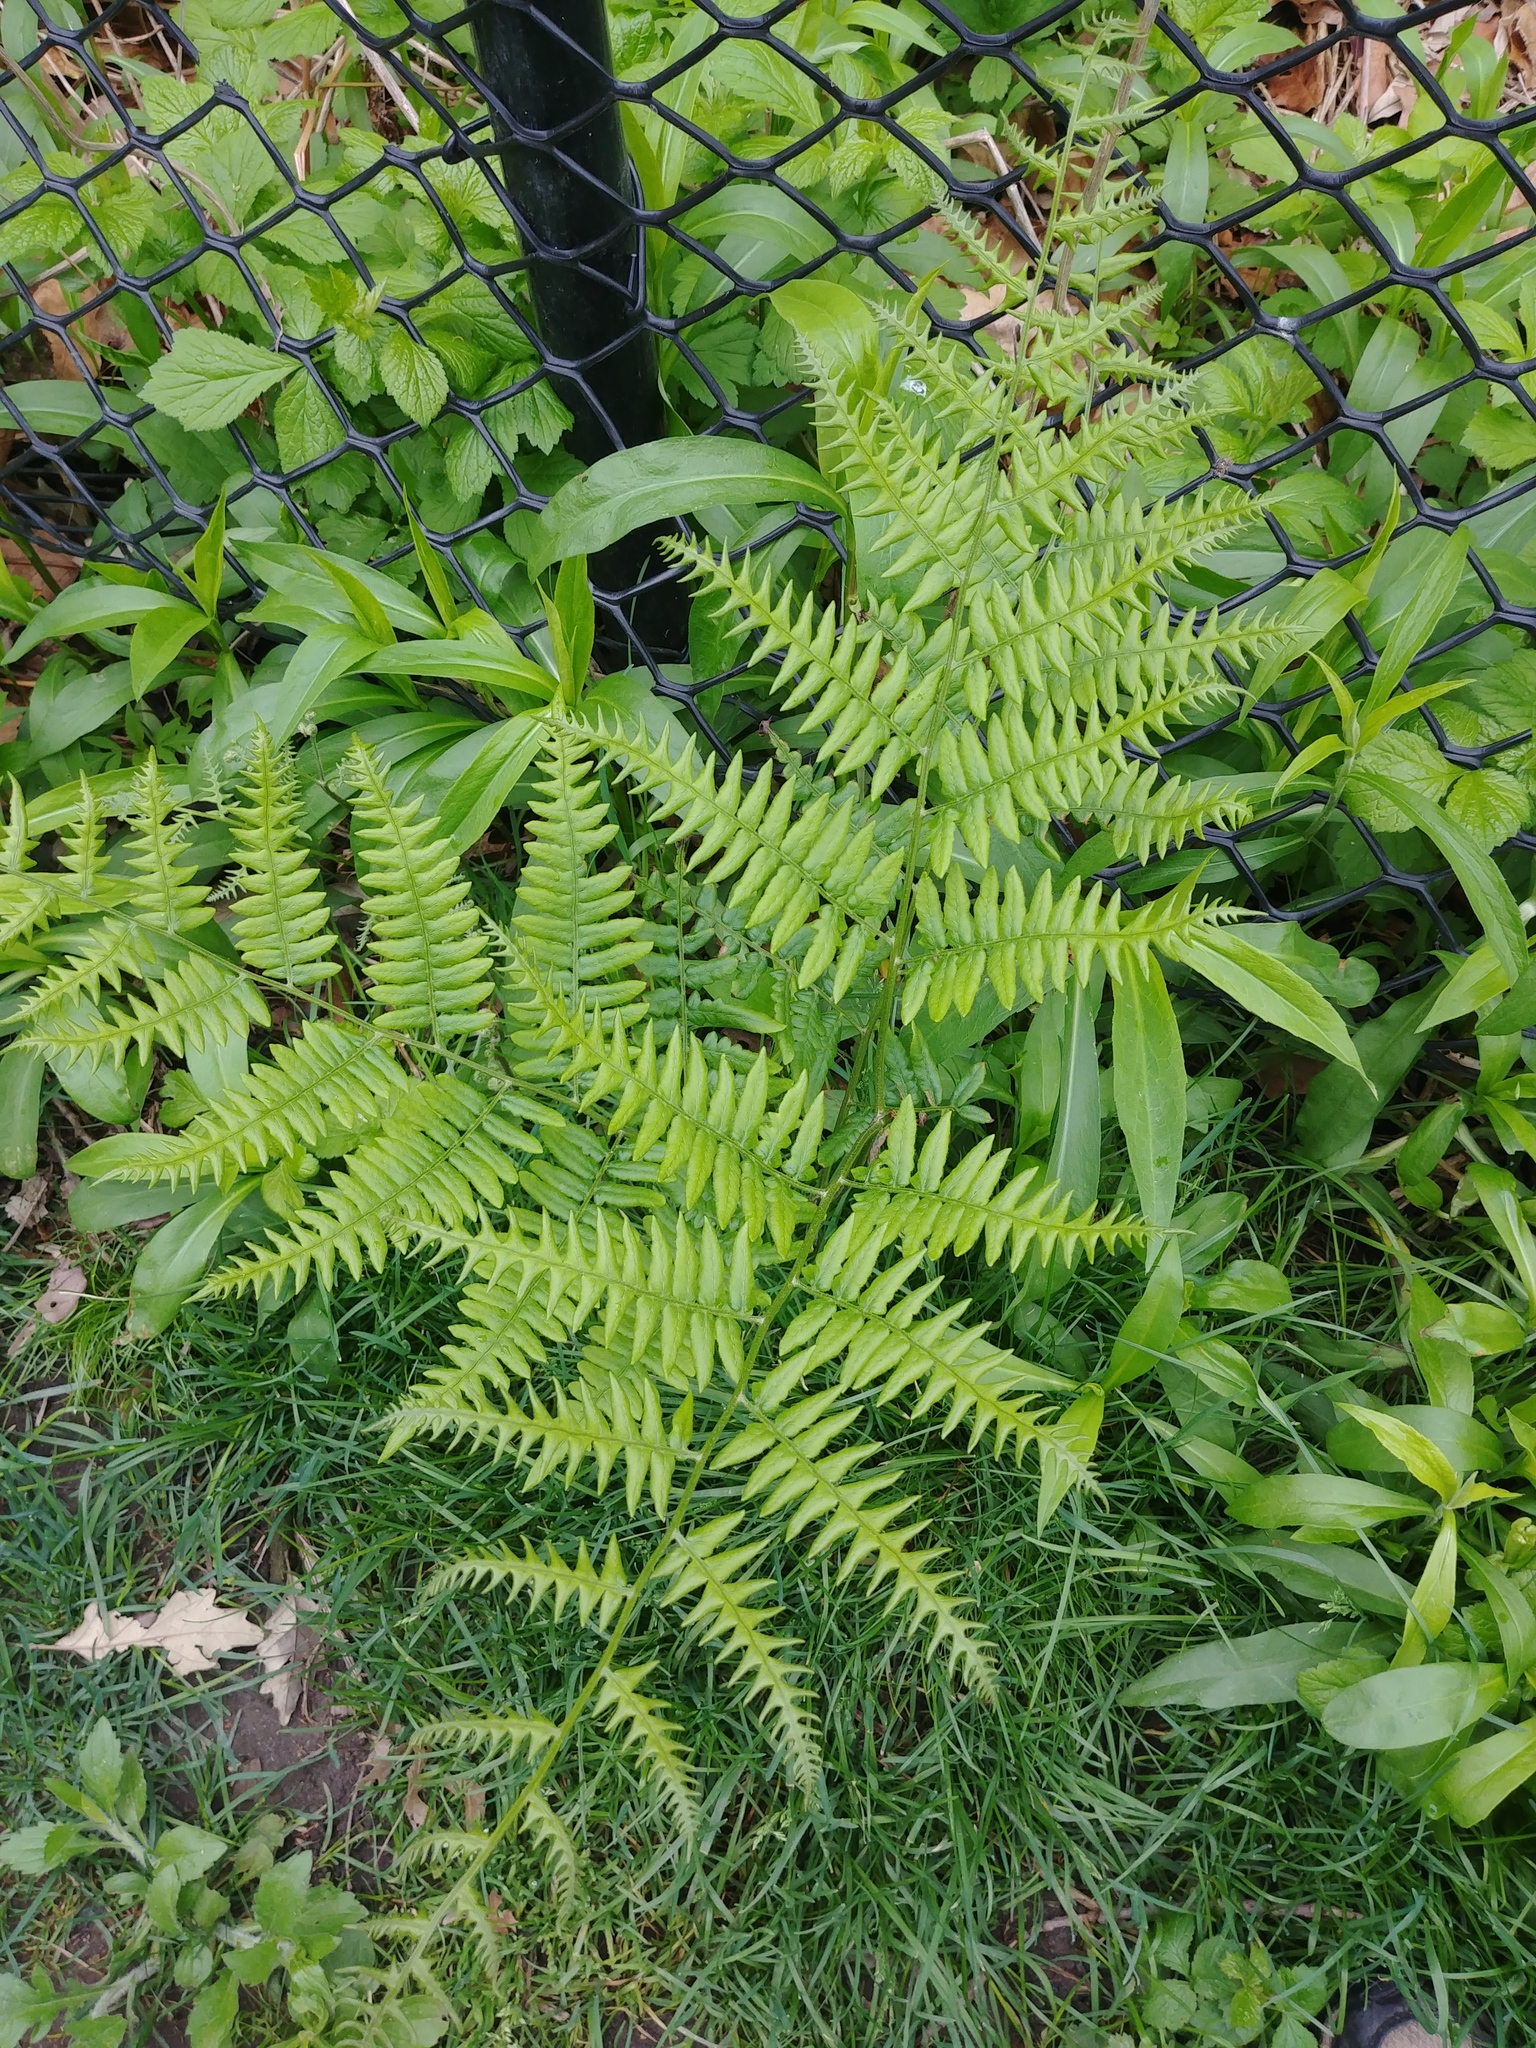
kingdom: Plantae
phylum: Tracheophyta
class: Polypodiopsida
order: Polypodiales
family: Dennstaedtiaceae
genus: Pteridium
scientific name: Pteridium aquilinum
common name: Bracken
